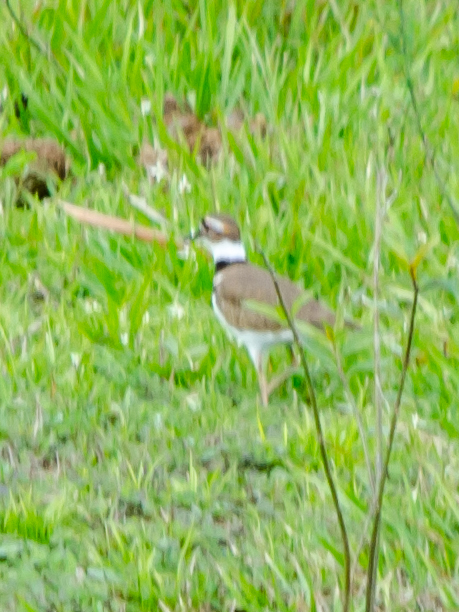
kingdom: Animalia
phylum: Chordata
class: Aves
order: Charadriiformes
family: Charadriidae
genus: Charadrius
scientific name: Charadrius vociferus
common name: Killdeer
